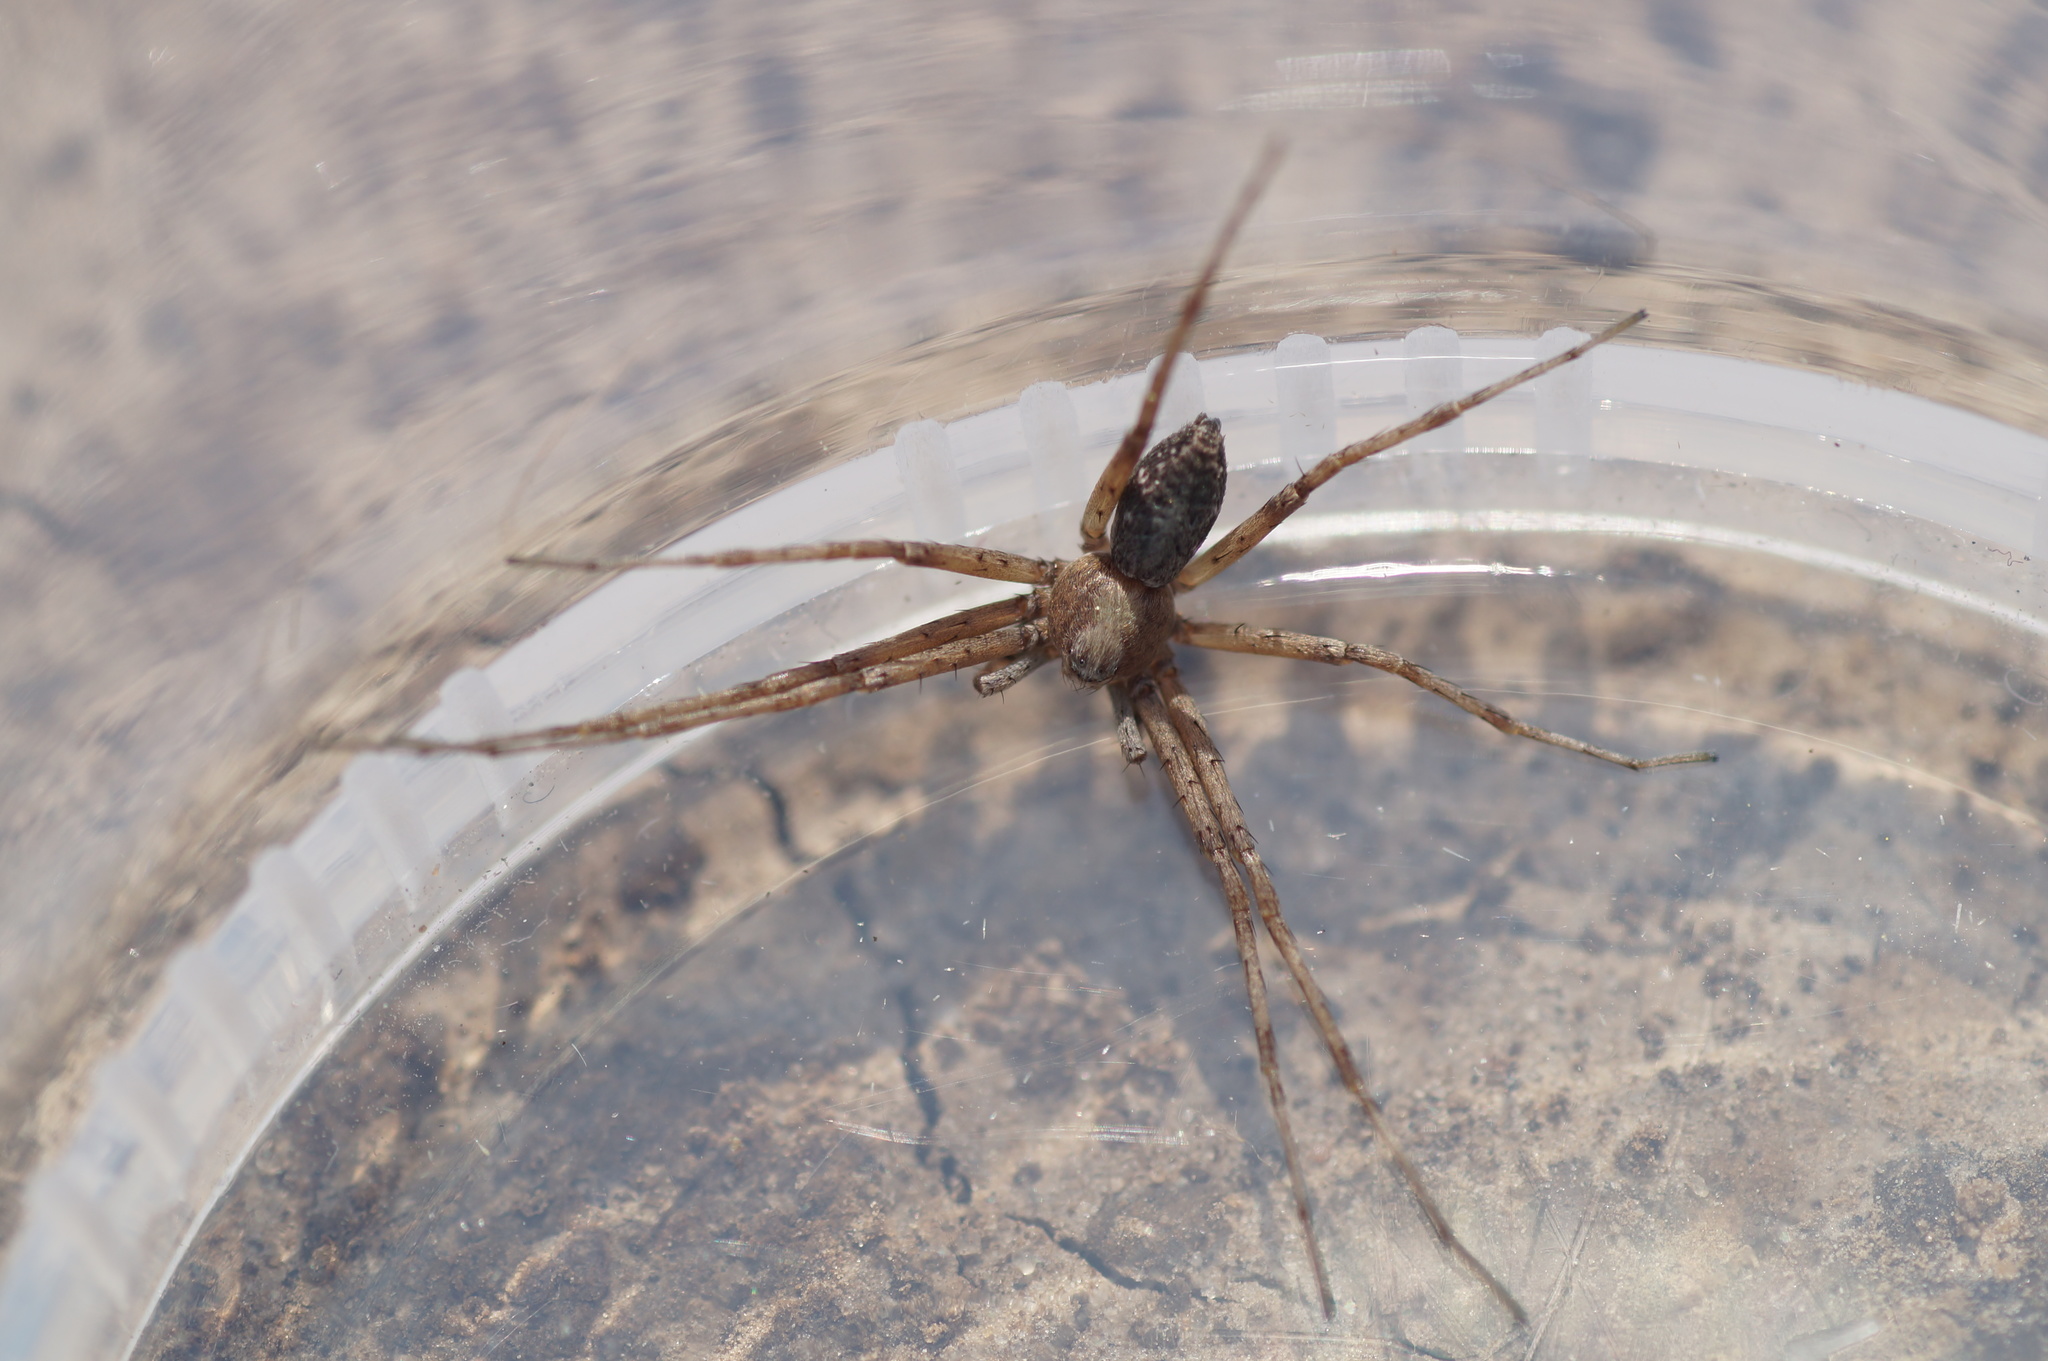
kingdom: Animalia
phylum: Arthropoda
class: Arachnida
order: Araneae
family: Philodromidae
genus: Philodromus
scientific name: Philodromus
